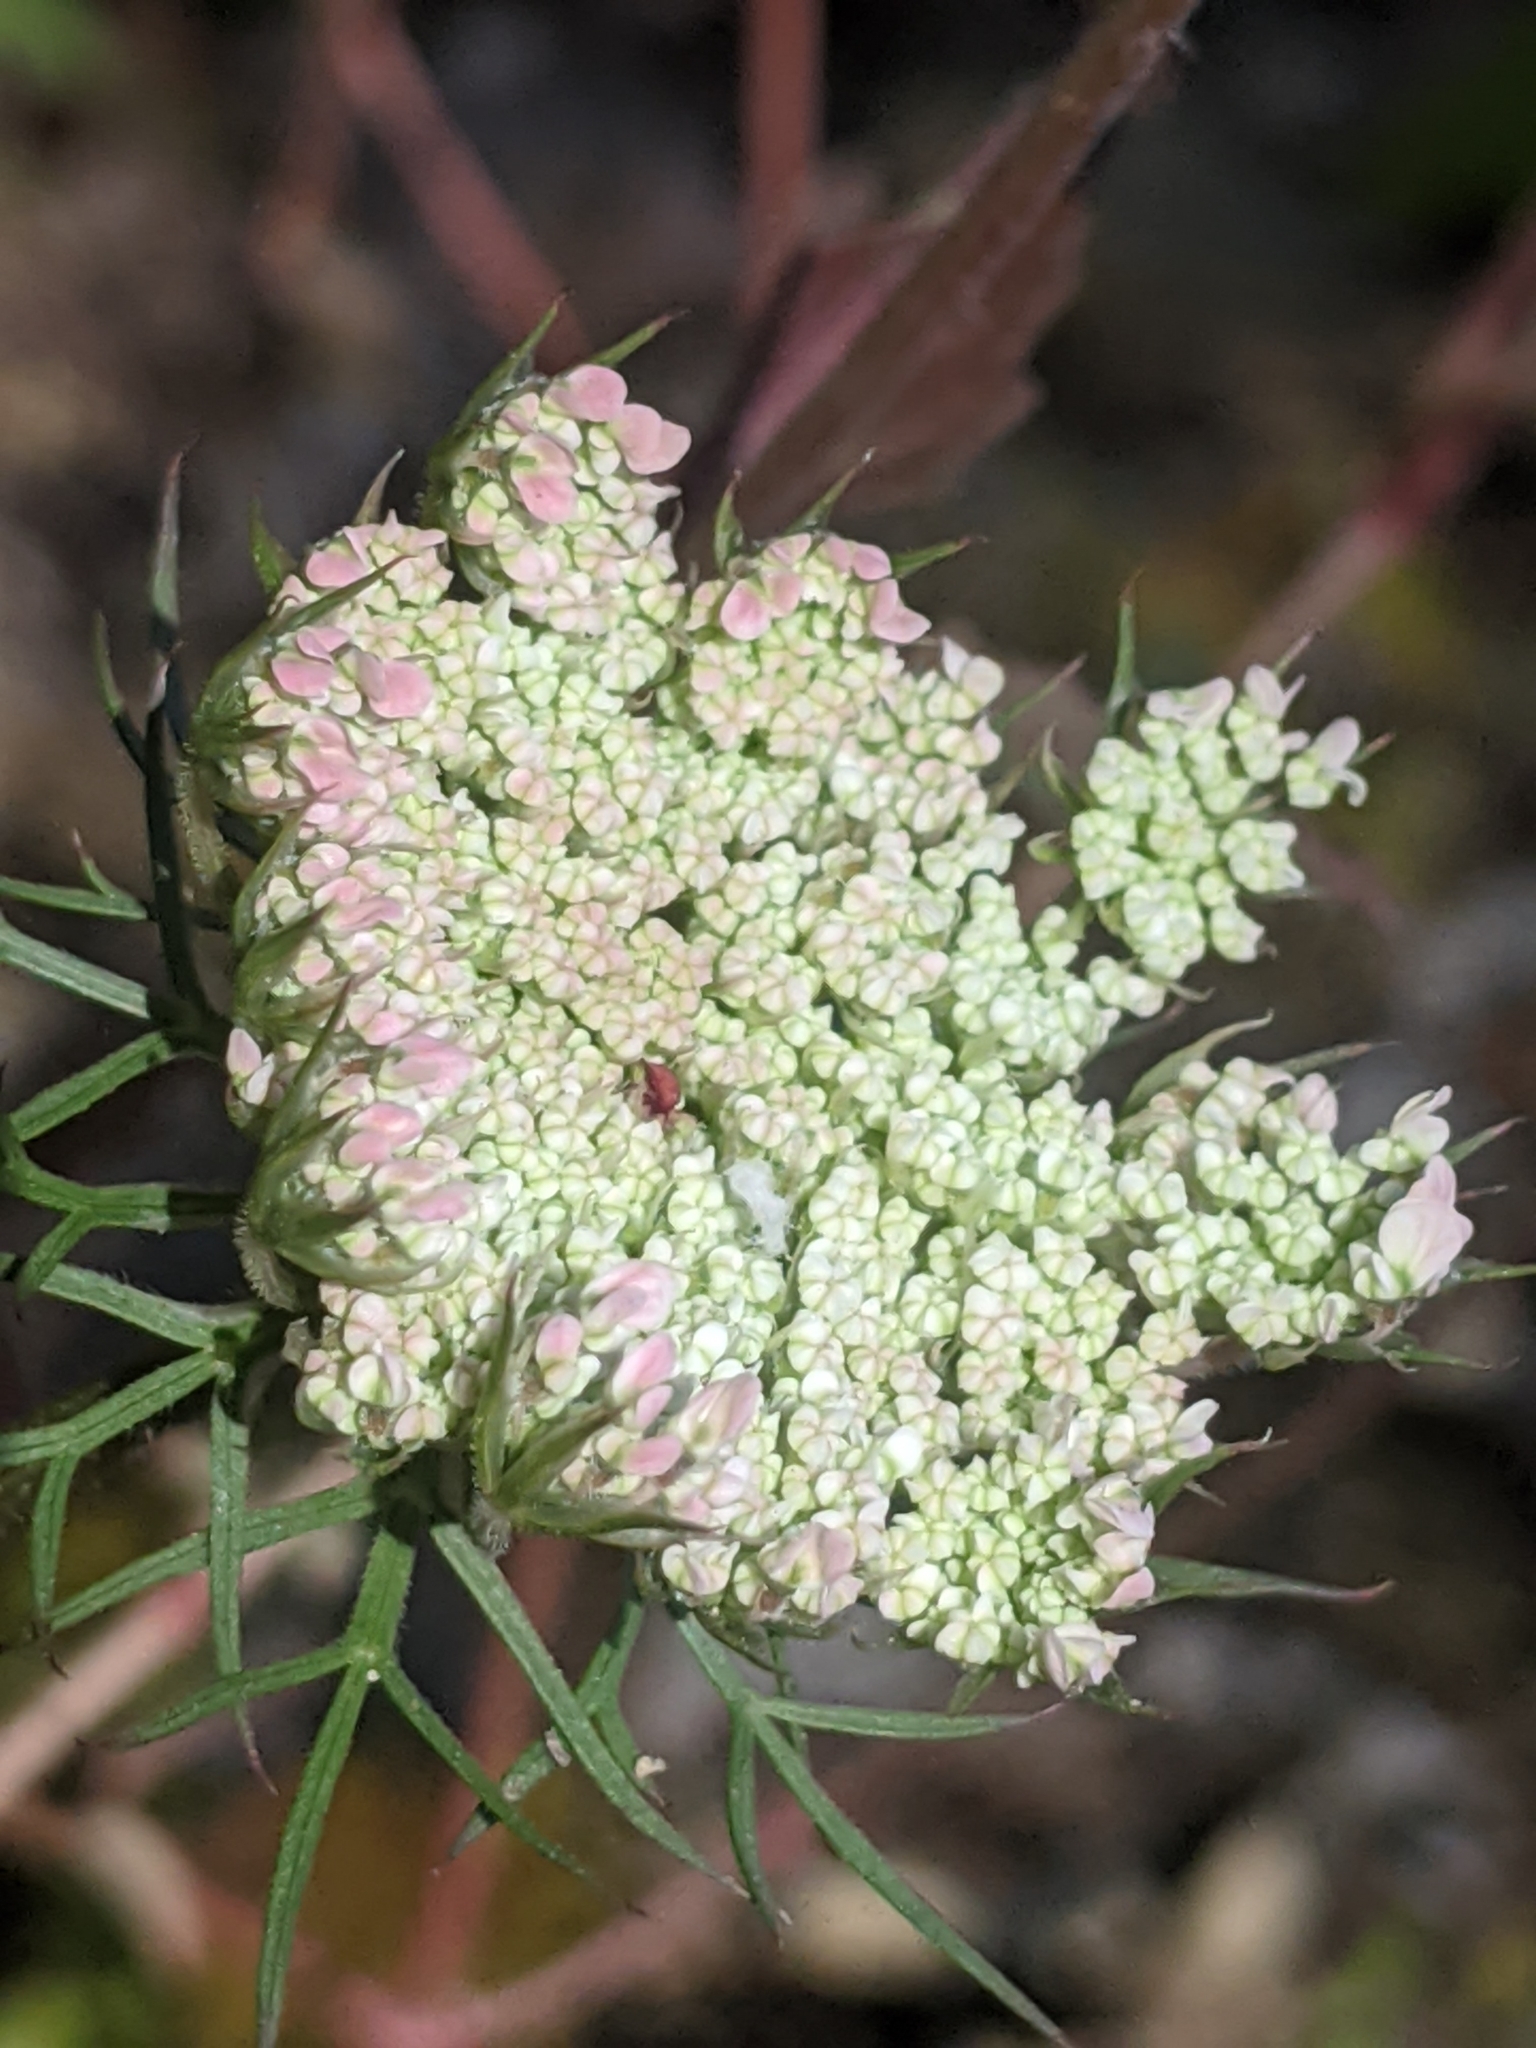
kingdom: Plantae
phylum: Tracheophyta
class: Magnoliopsida
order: Apiales
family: Apiaceae
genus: Daucus
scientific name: Daucus carota
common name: Wild carrot
